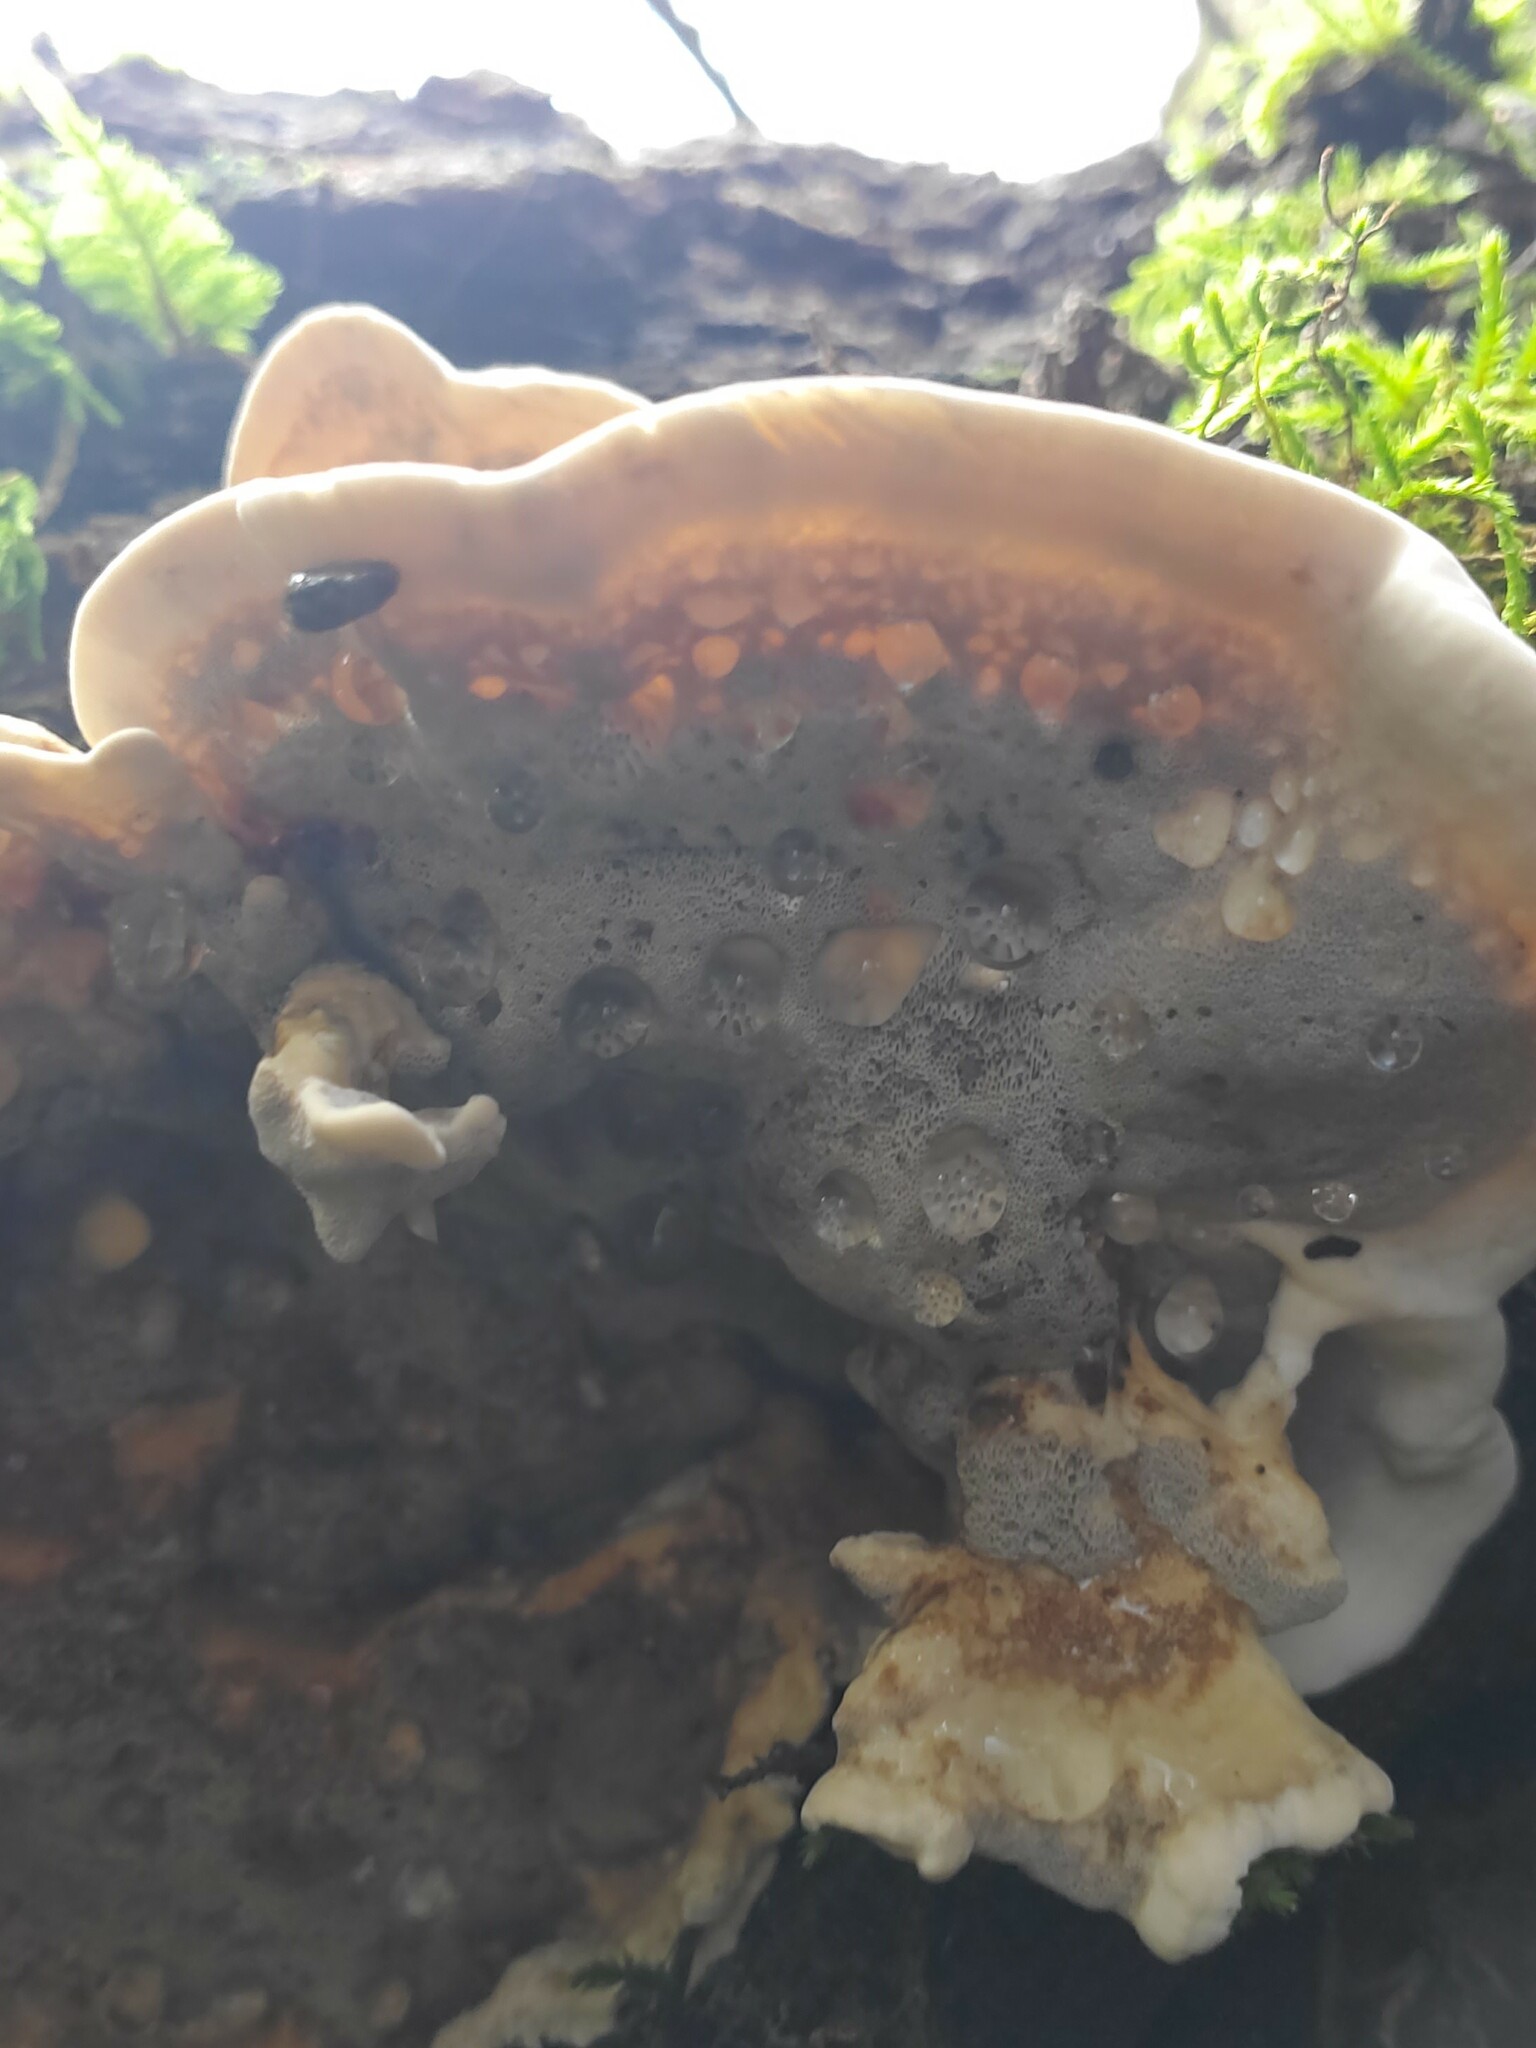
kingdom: Fungi
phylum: Basidiomycota
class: Agaricomycetes
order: Polyporales
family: Polyporaceae
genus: Trametes
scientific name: Trametes versicolor
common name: Turkeytail
